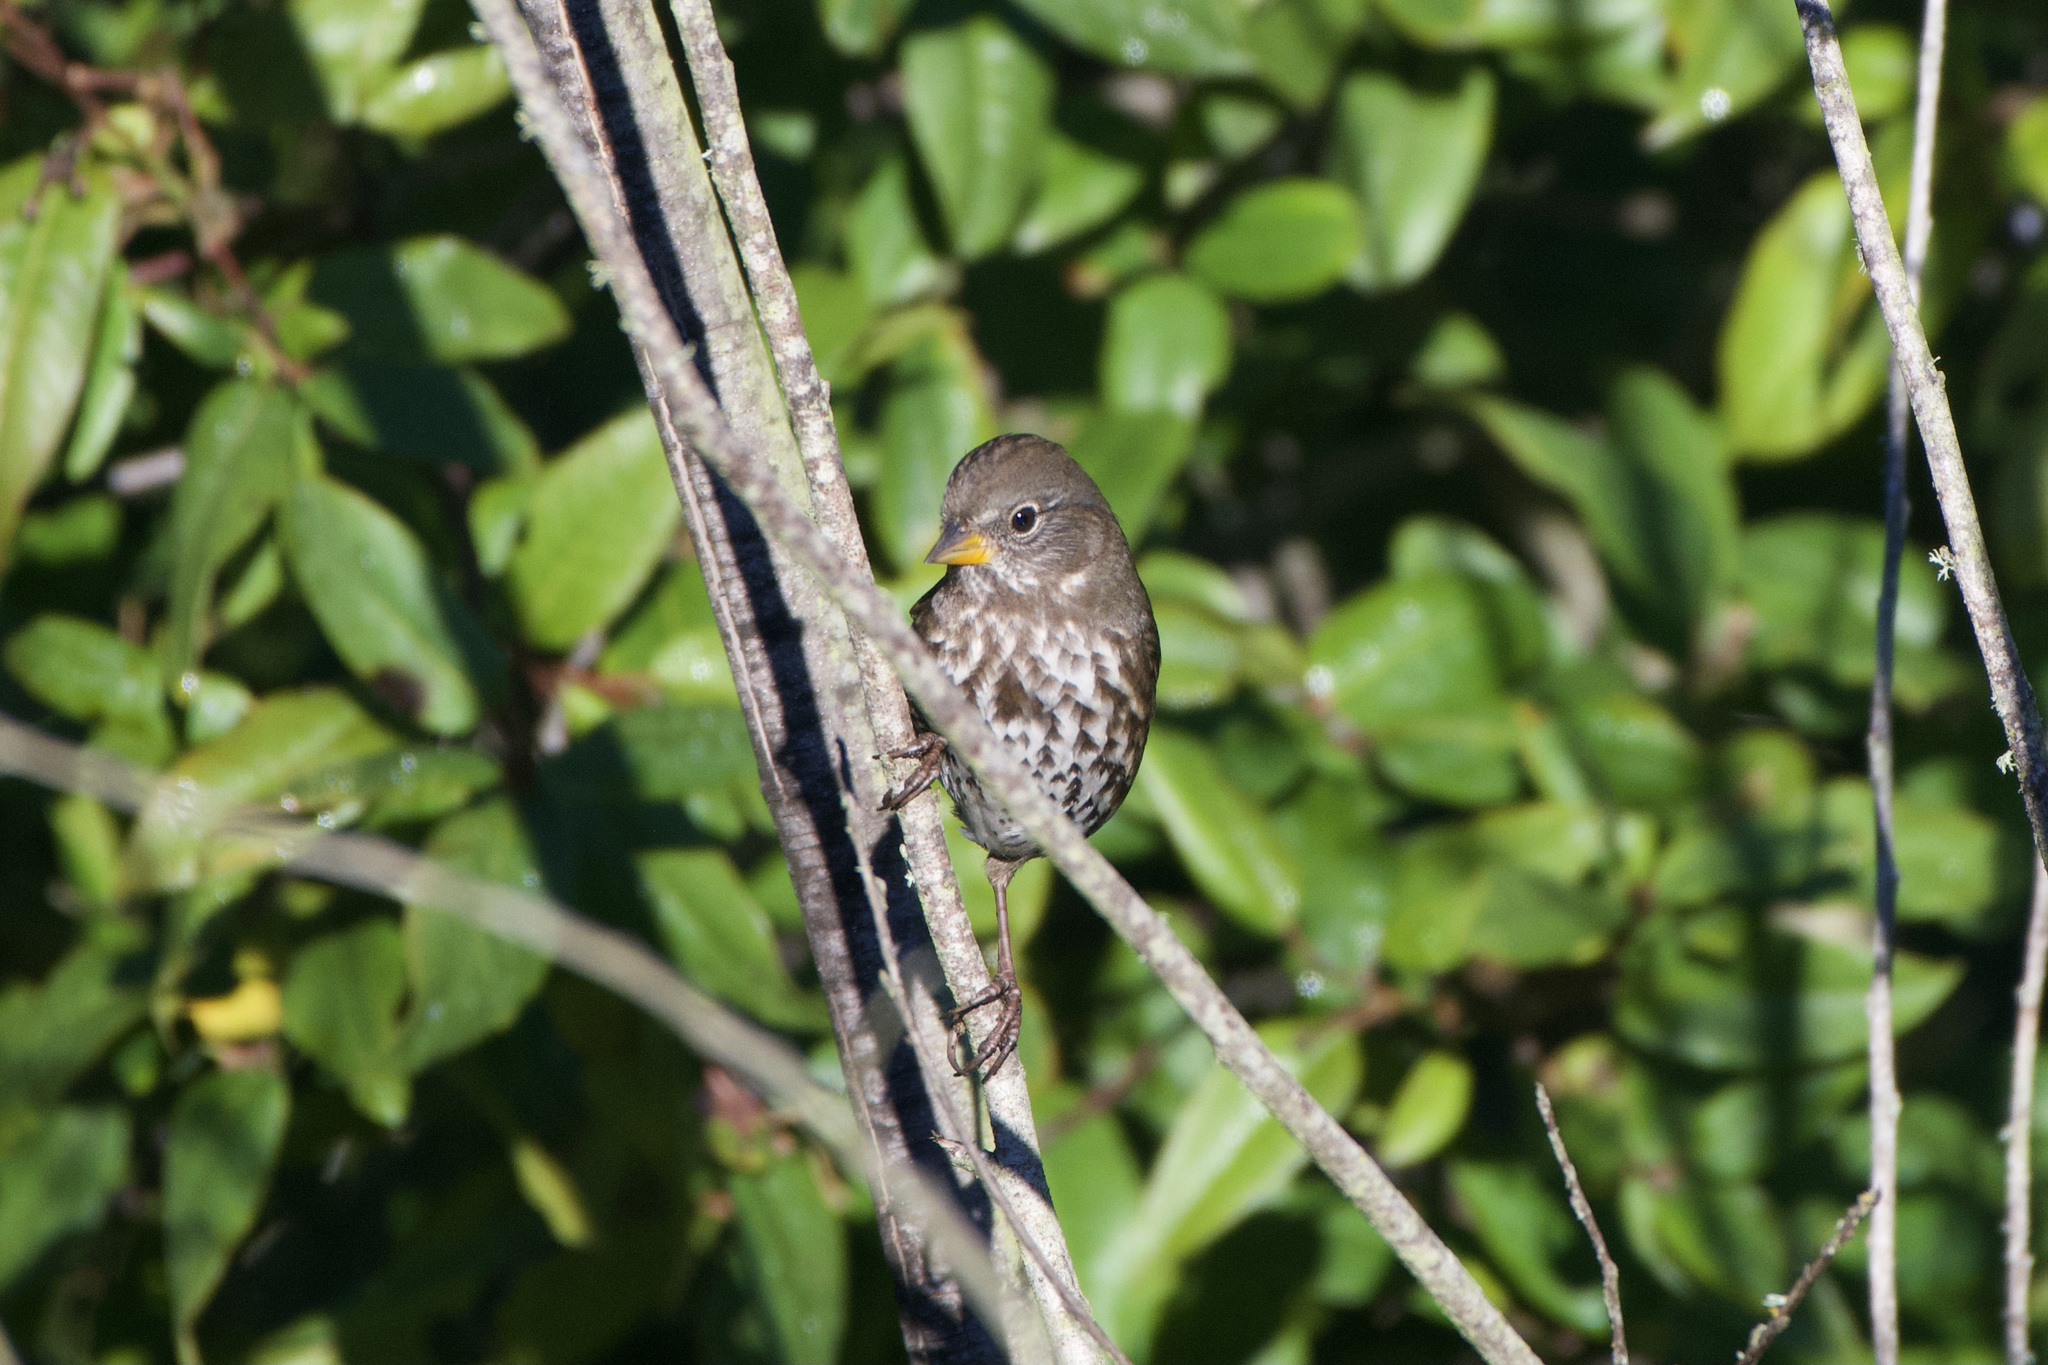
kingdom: Animalia
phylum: Chordata
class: Aves
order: Passeriformes
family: Passerellidae
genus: Passerella
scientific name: Passerella iliaca
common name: Fox sparrow
